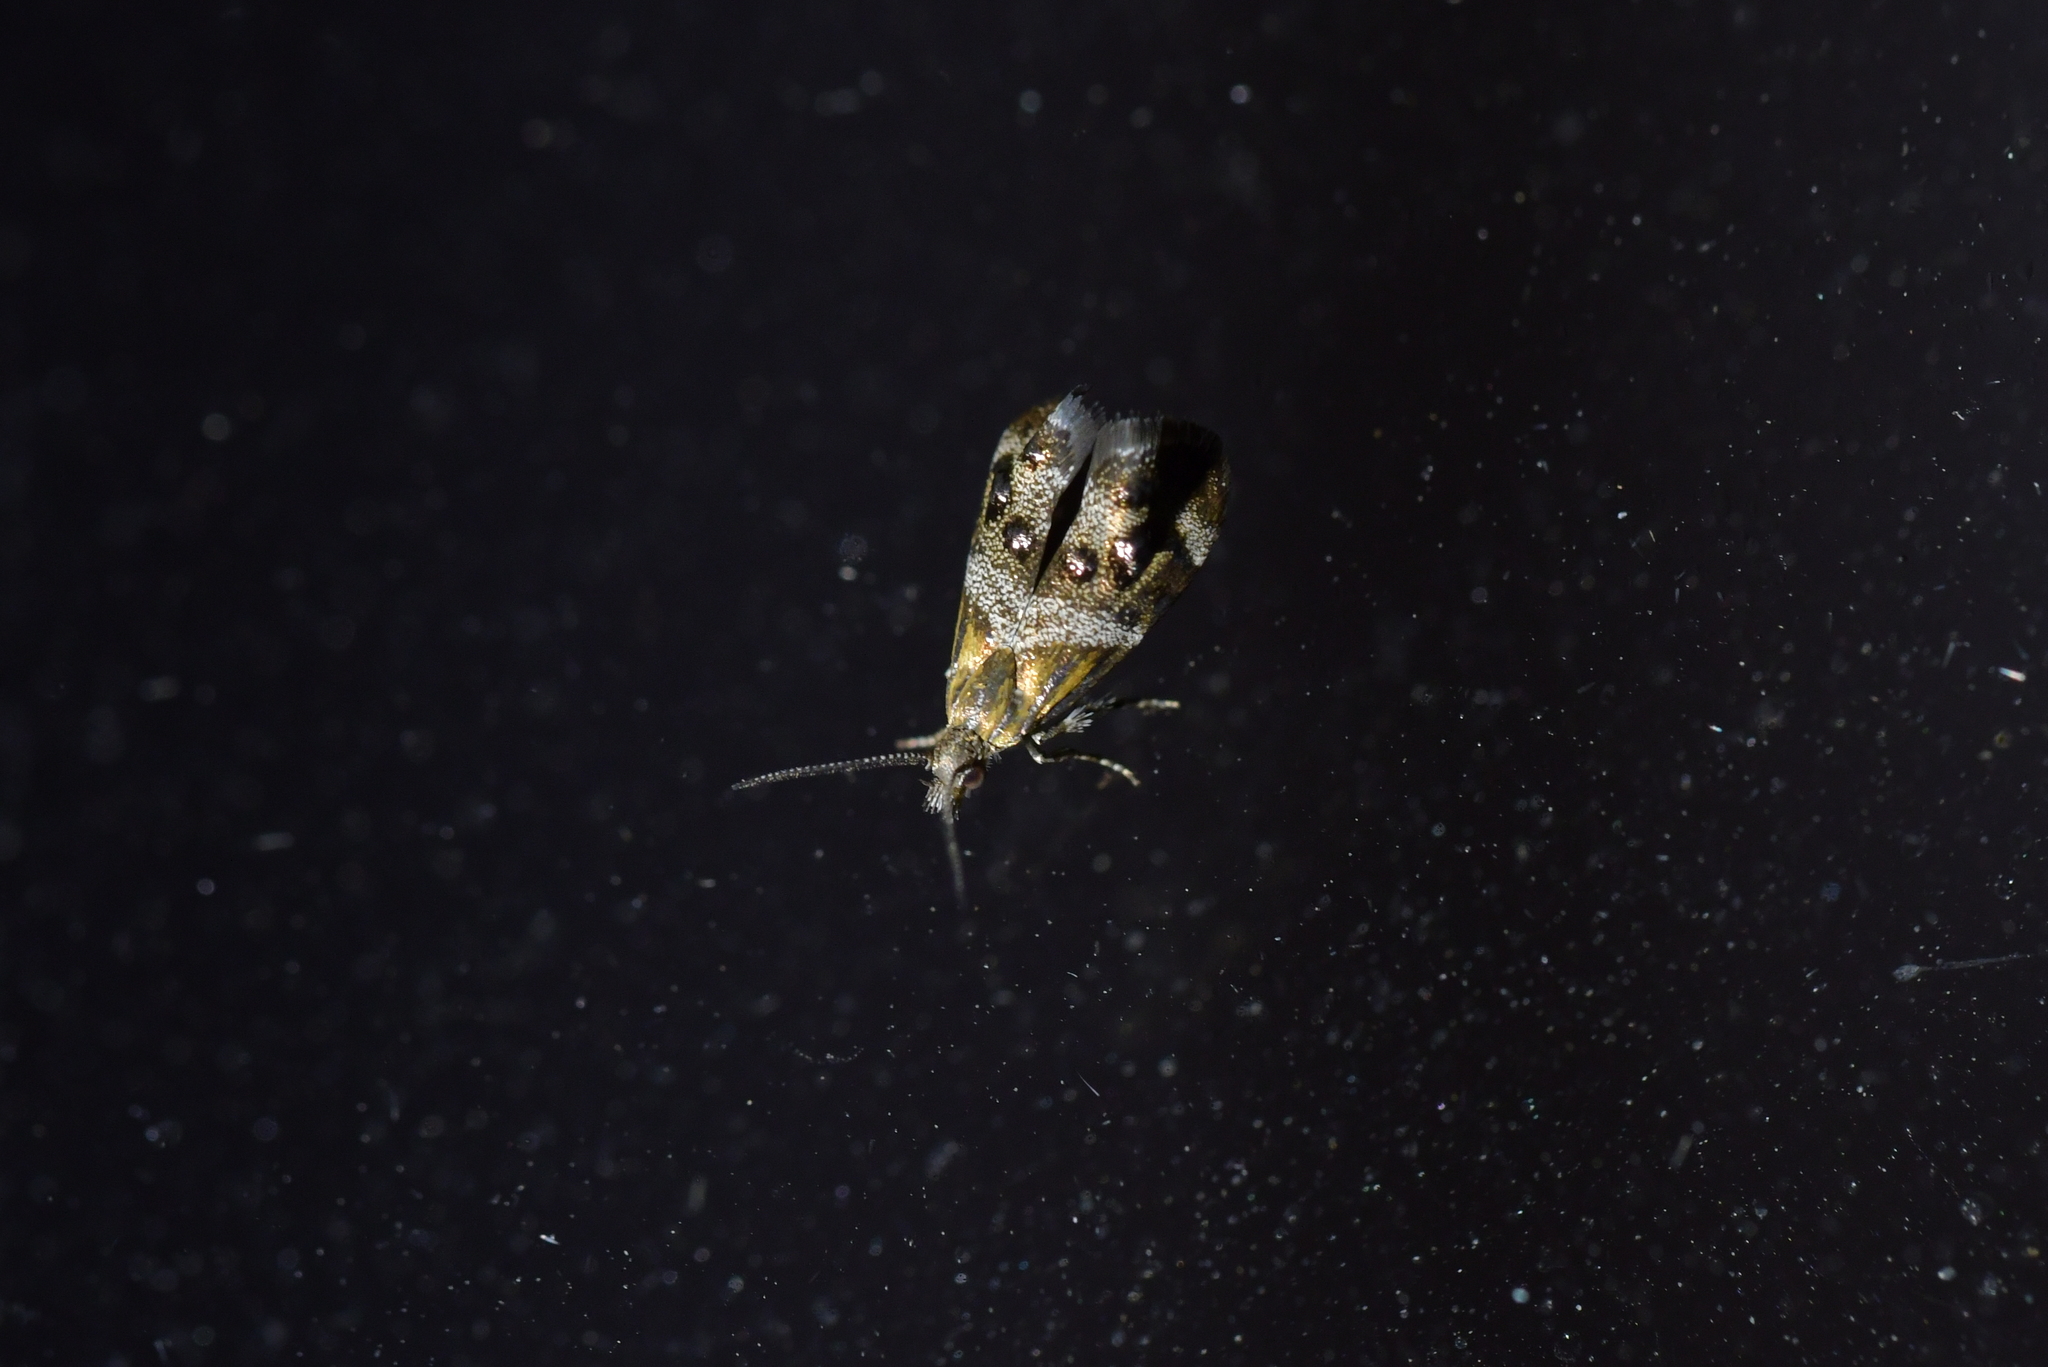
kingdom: Animalia
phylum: Arthropoda
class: Insecta
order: Lepidoptera
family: Choreutidae
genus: Tebenna
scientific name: Tebenna micalis
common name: Vagrant twitcher
